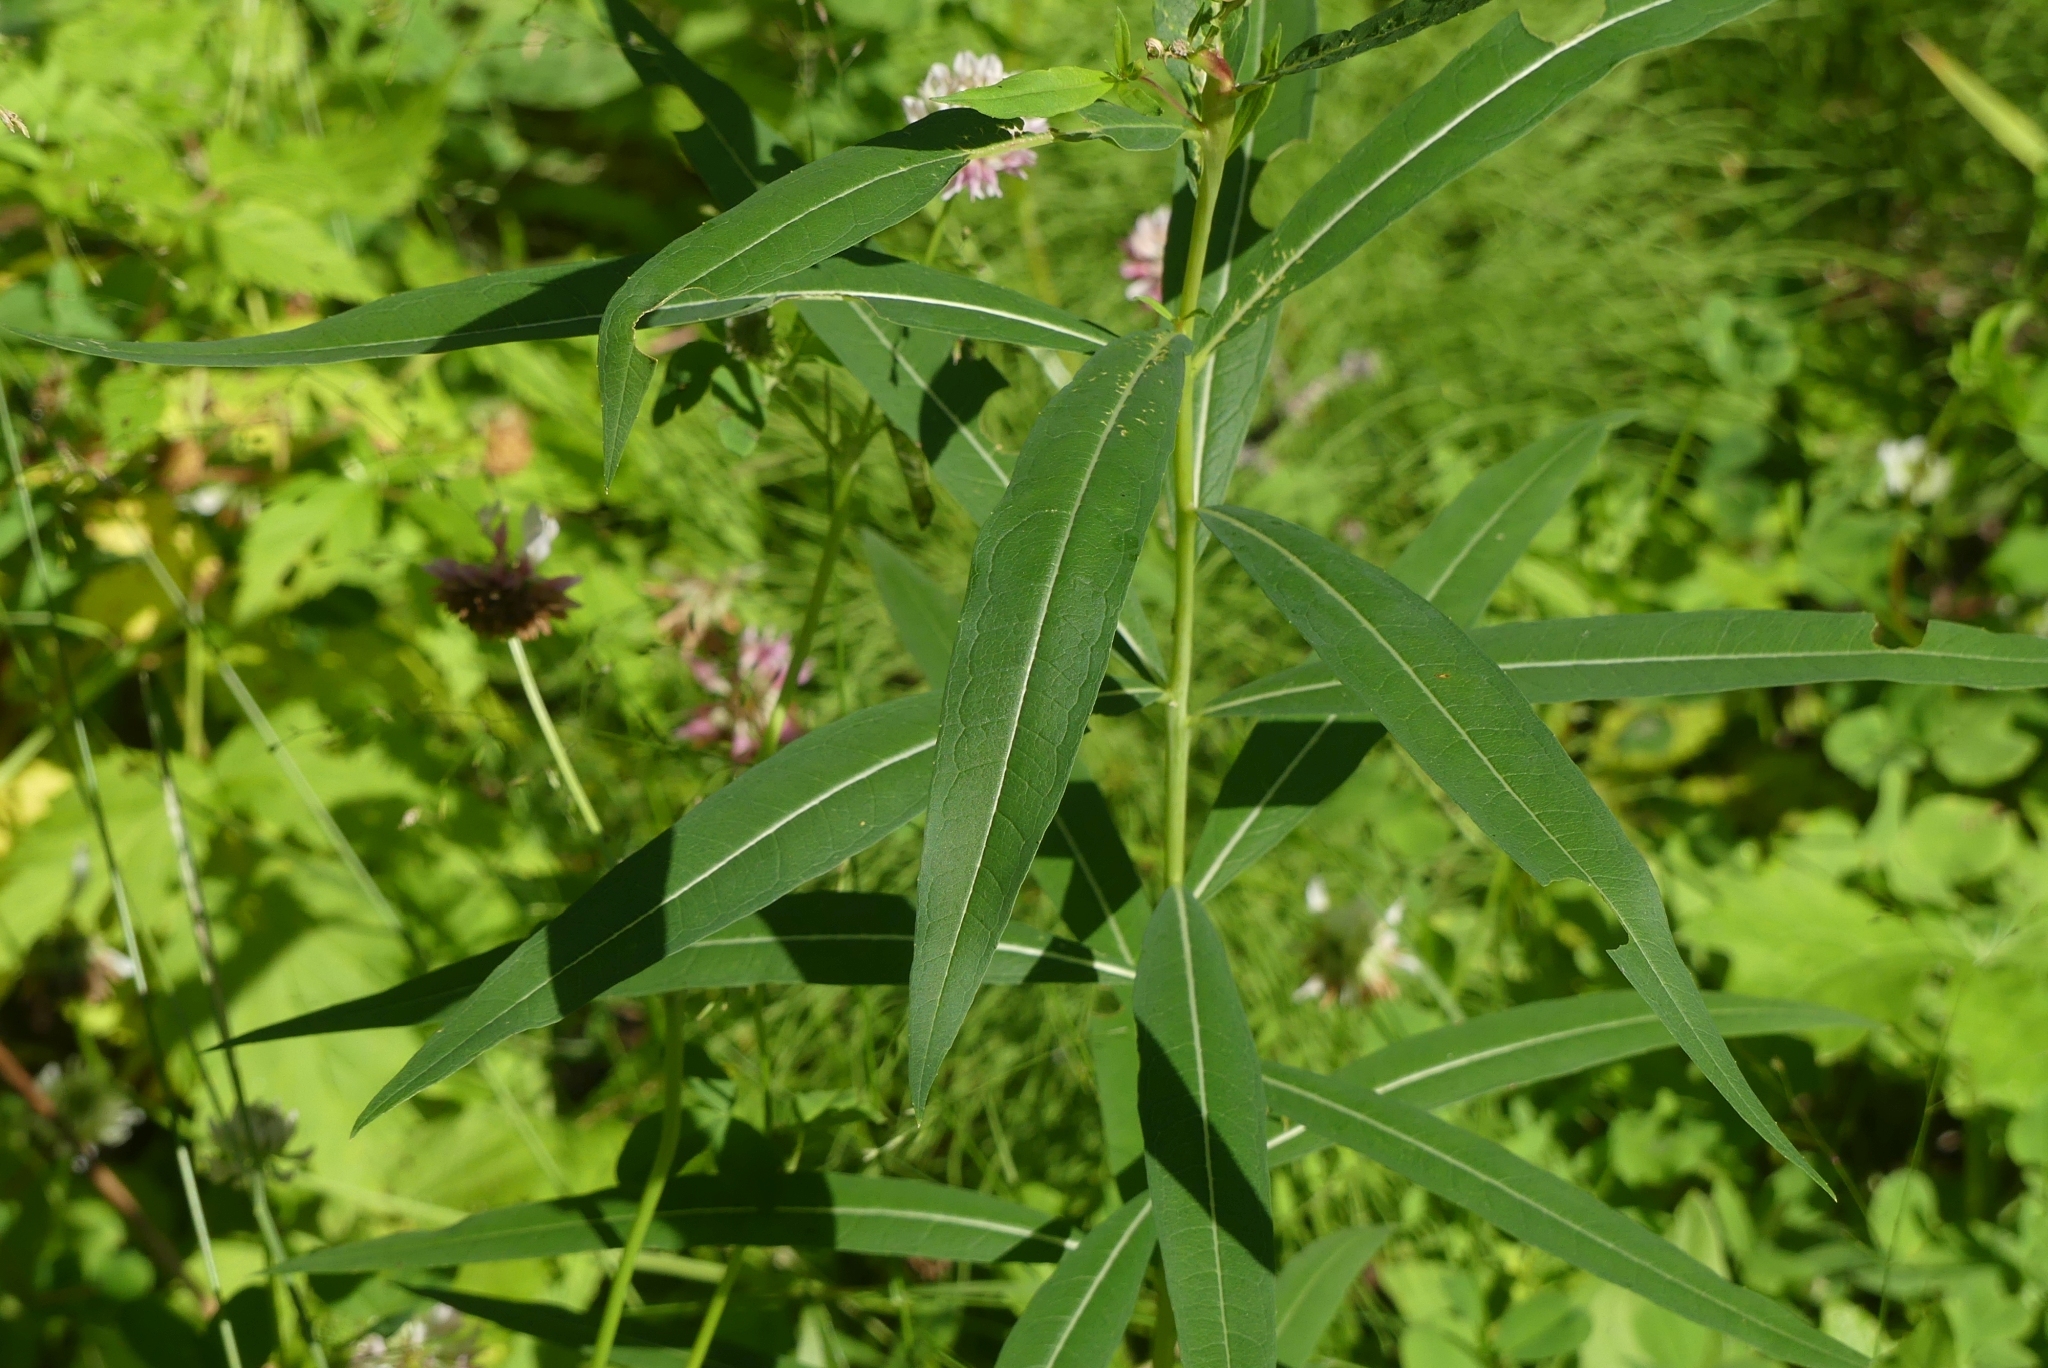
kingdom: Plantae
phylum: Tracheophyta
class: Magnoliopsida
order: Myrtales
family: Onagraceae
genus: Chamaenerion
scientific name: Chamaenerion angustifolium
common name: Fireweed
